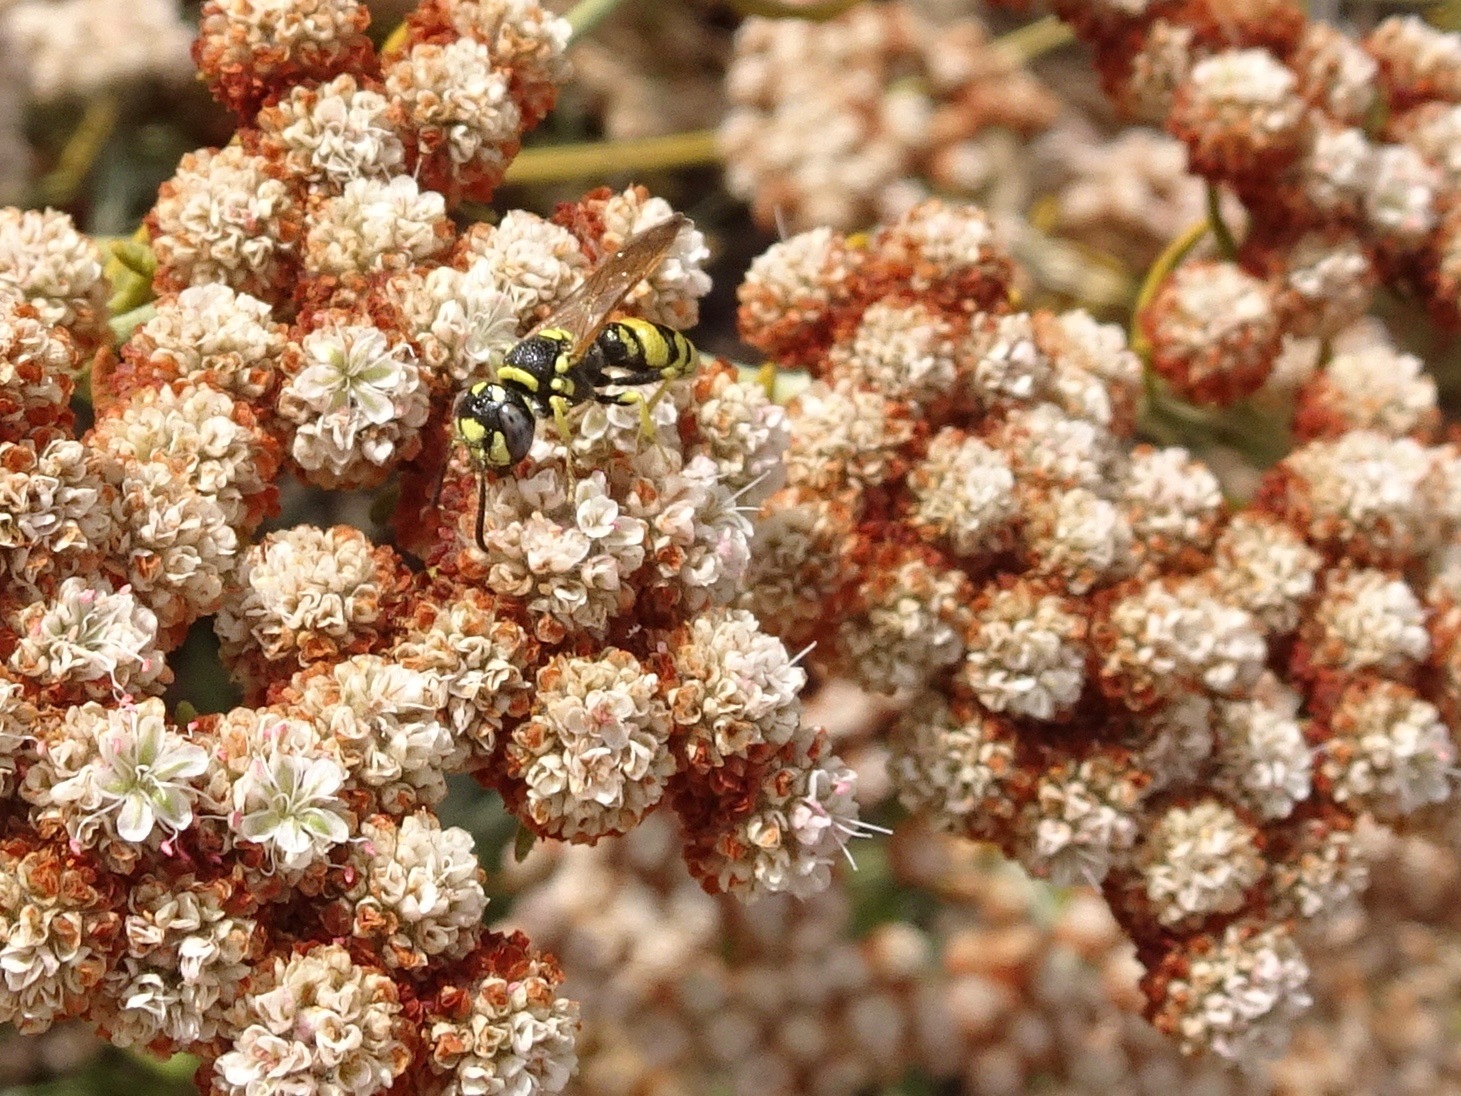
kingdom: Animalia
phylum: Arthropoda
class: Insecta
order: Hymenoptera
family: Crabronidae
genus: Philanthus
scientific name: Philanthus gibbosus
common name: Humped beewolf
